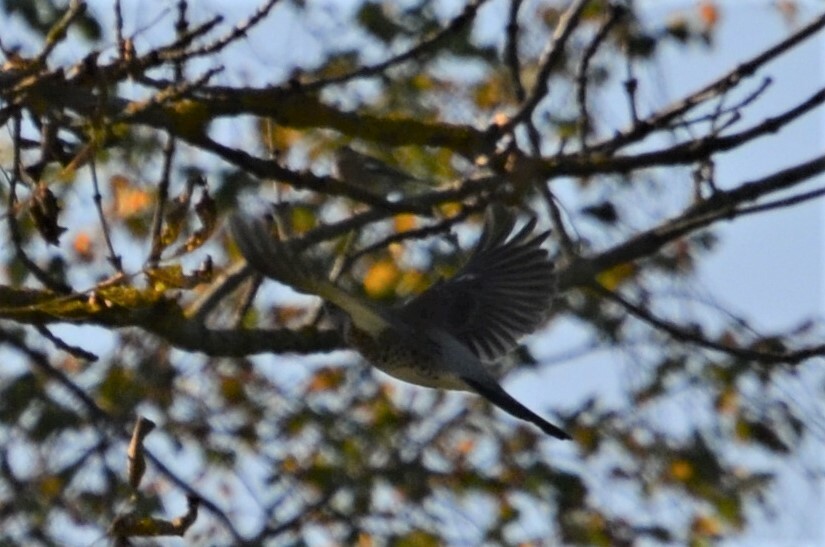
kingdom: Animalia
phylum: Chordata
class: Aves
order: Passeriformes
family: Turdidae
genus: Turdus
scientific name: Turdus pilaris
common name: Fieldfare
